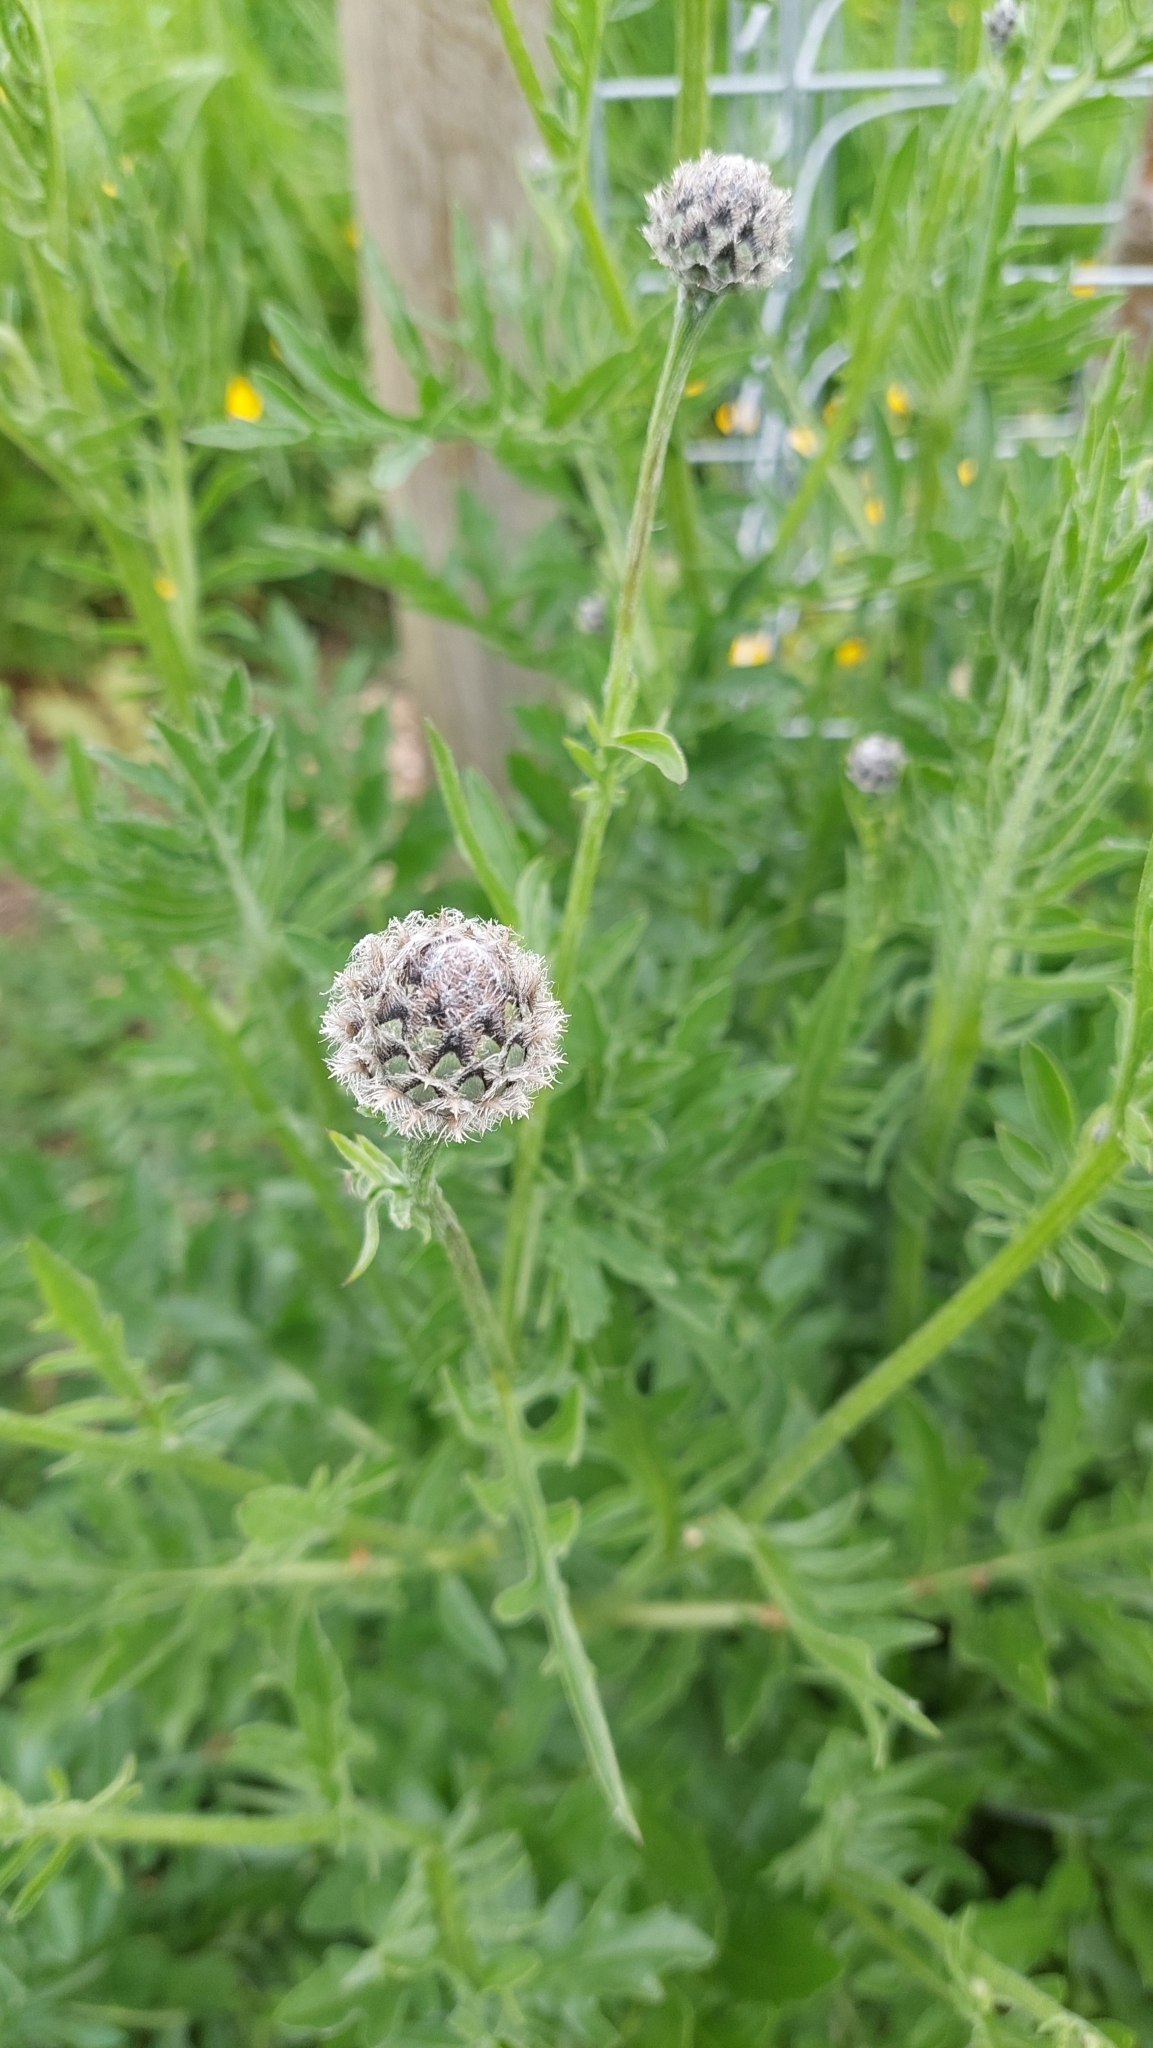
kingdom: Plantae
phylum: Tracheophyta
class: Magnoliopsida
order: Asterales
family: Asteraceae
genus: Centaurea
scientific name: Centaurea scabiosa
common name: Greater knapweed
